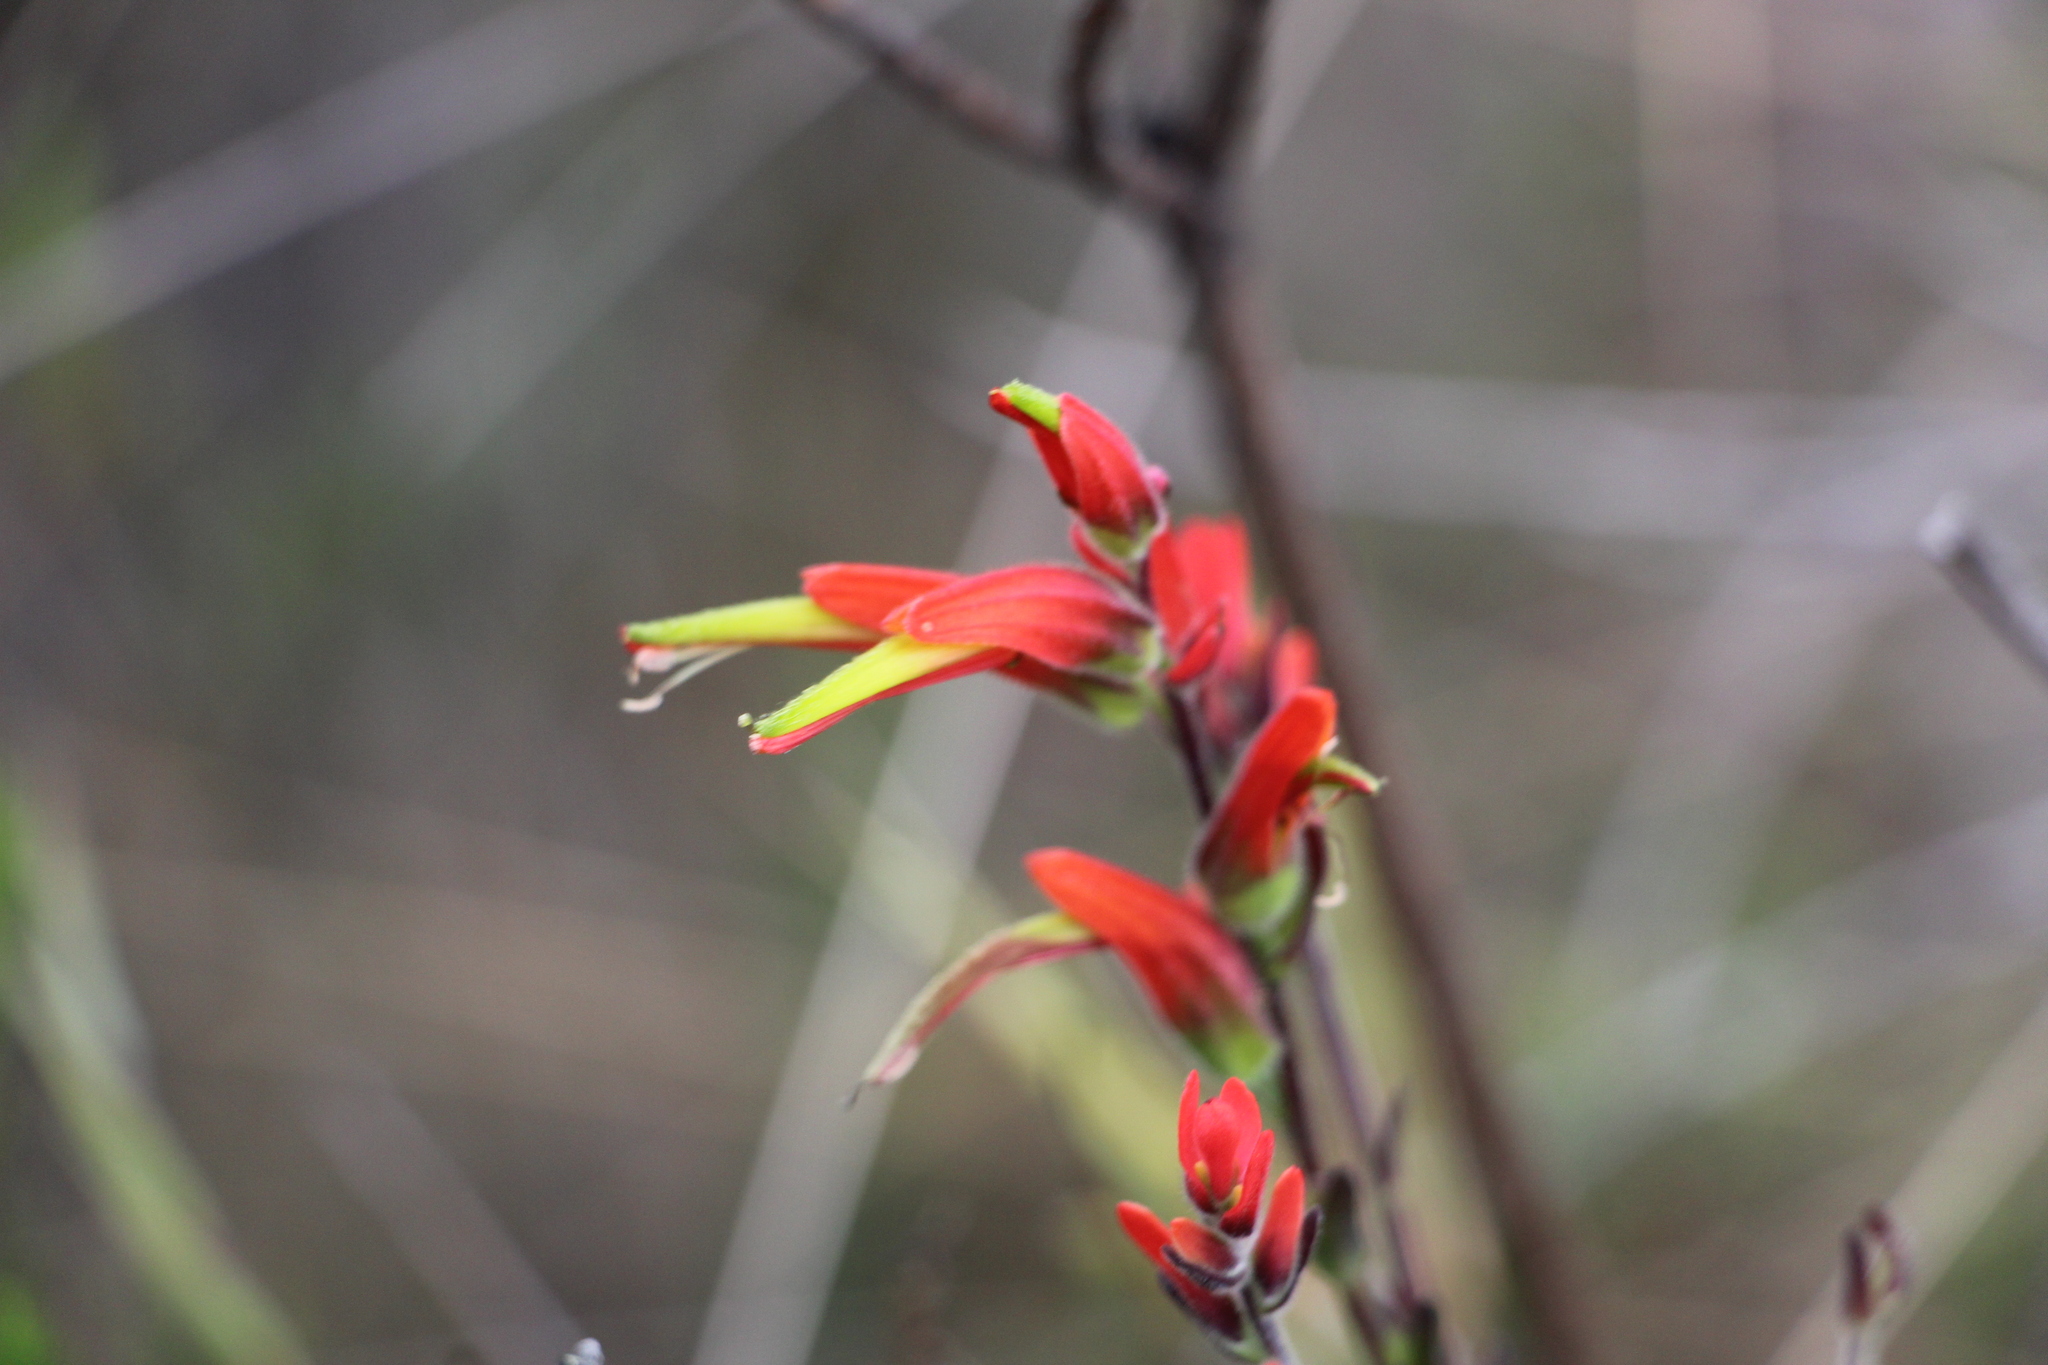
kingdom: Plantae
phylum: Tracheophyta
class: Magnoliopsida
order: Lamiales
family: Orobanchaceae
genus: Castilleja
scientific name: Castilleja fissifolia
